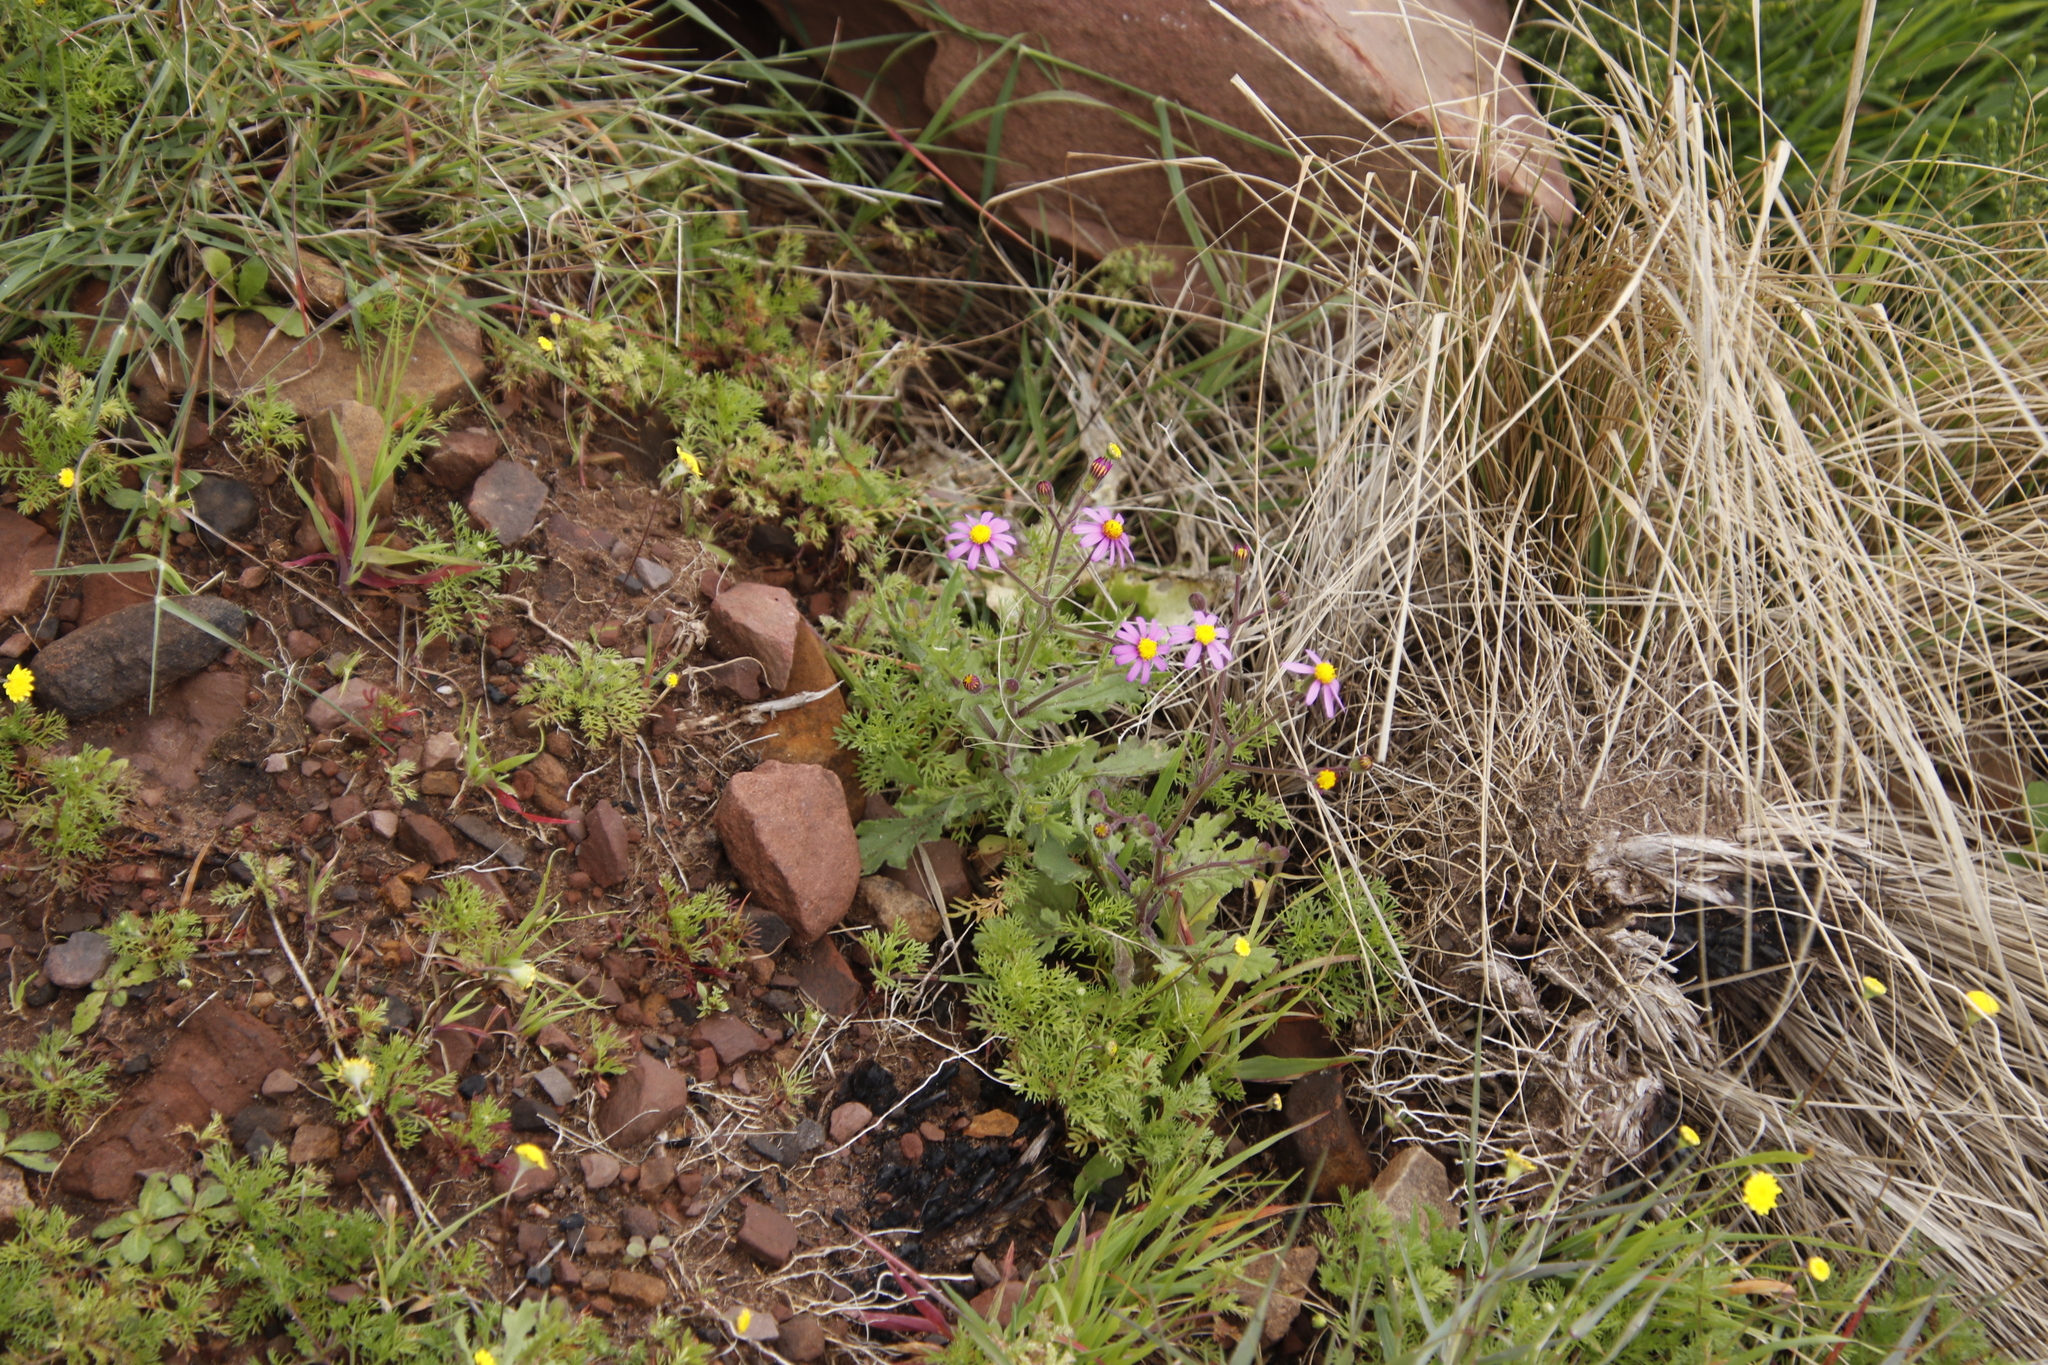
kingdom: Plantae
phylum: Tracheophyta
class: Magnoliopsida
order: Asterales
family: Asteraceae
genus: Senecio
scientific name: Senecio arenarius
